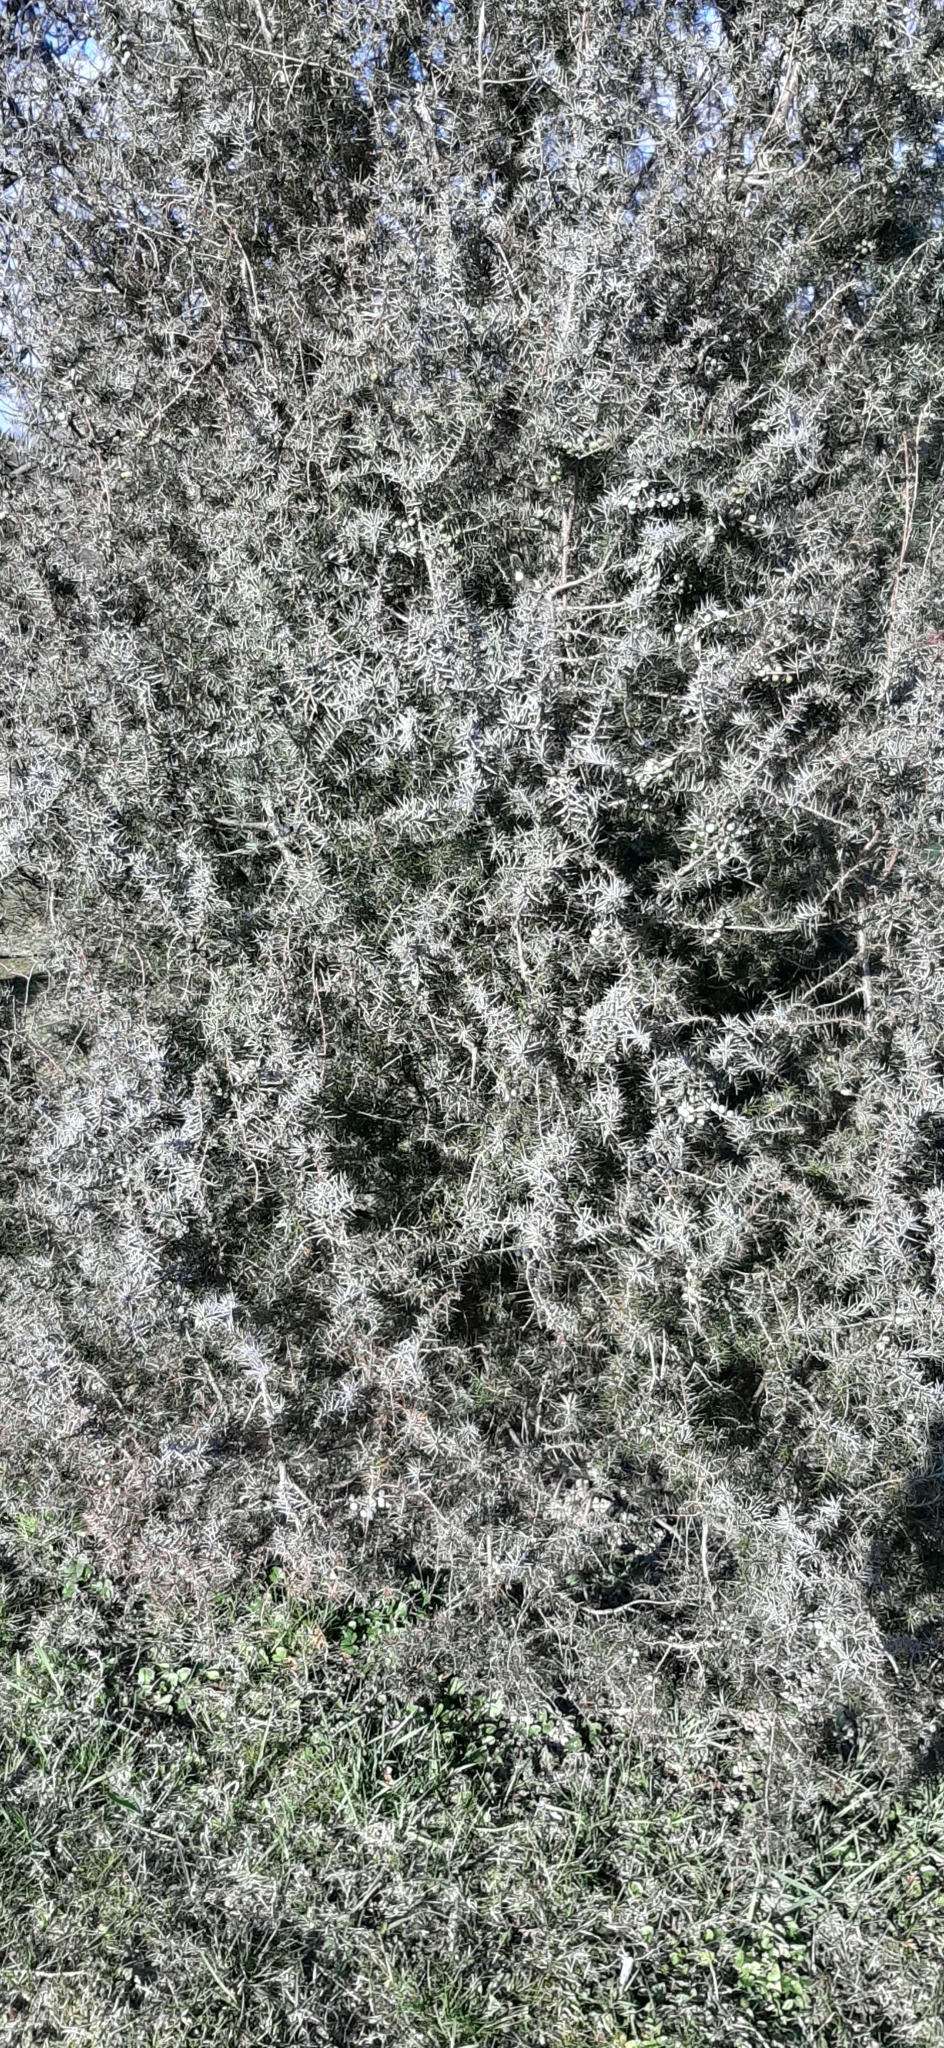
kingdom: Plantae
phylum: Tracheophyta
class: Pinopsida
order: Pinales
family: Cupressaceae
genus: Juniperus
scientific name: Juniperus communis
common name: Common juniper
